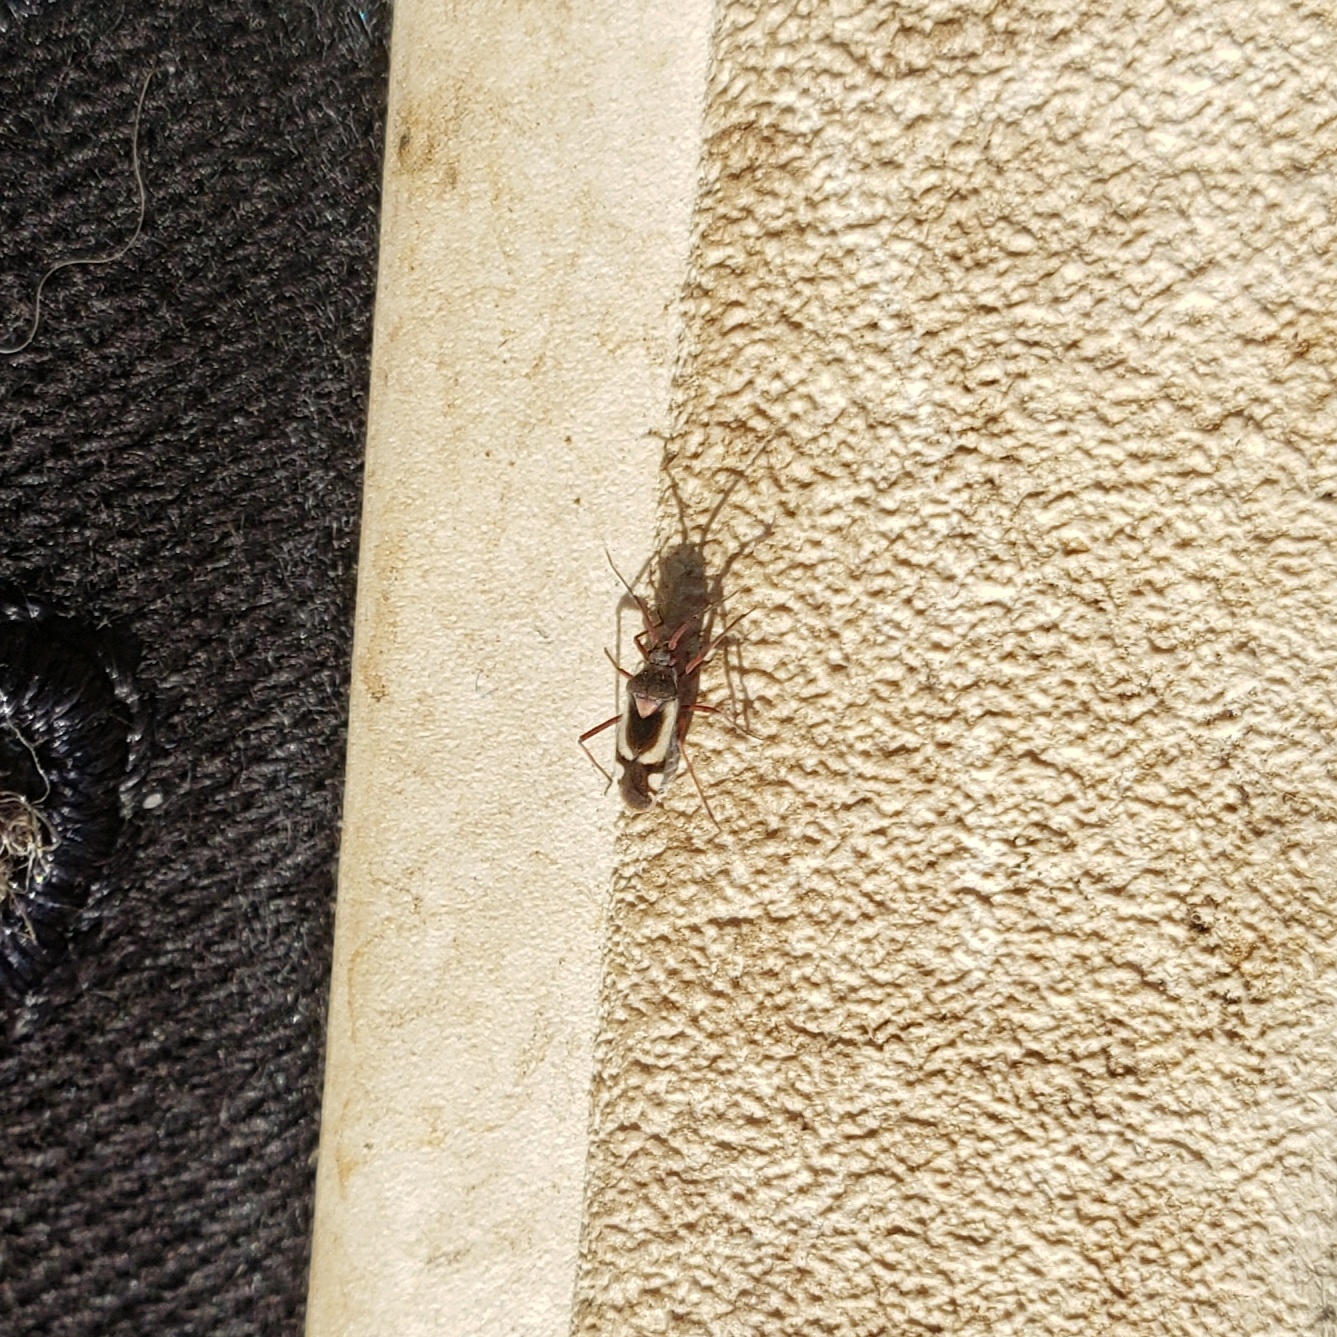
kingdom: Animalia
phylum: Arthropoda
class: Insecta
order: Hemiptera
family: Miridae
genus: Semium
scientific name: Semium hirtum
